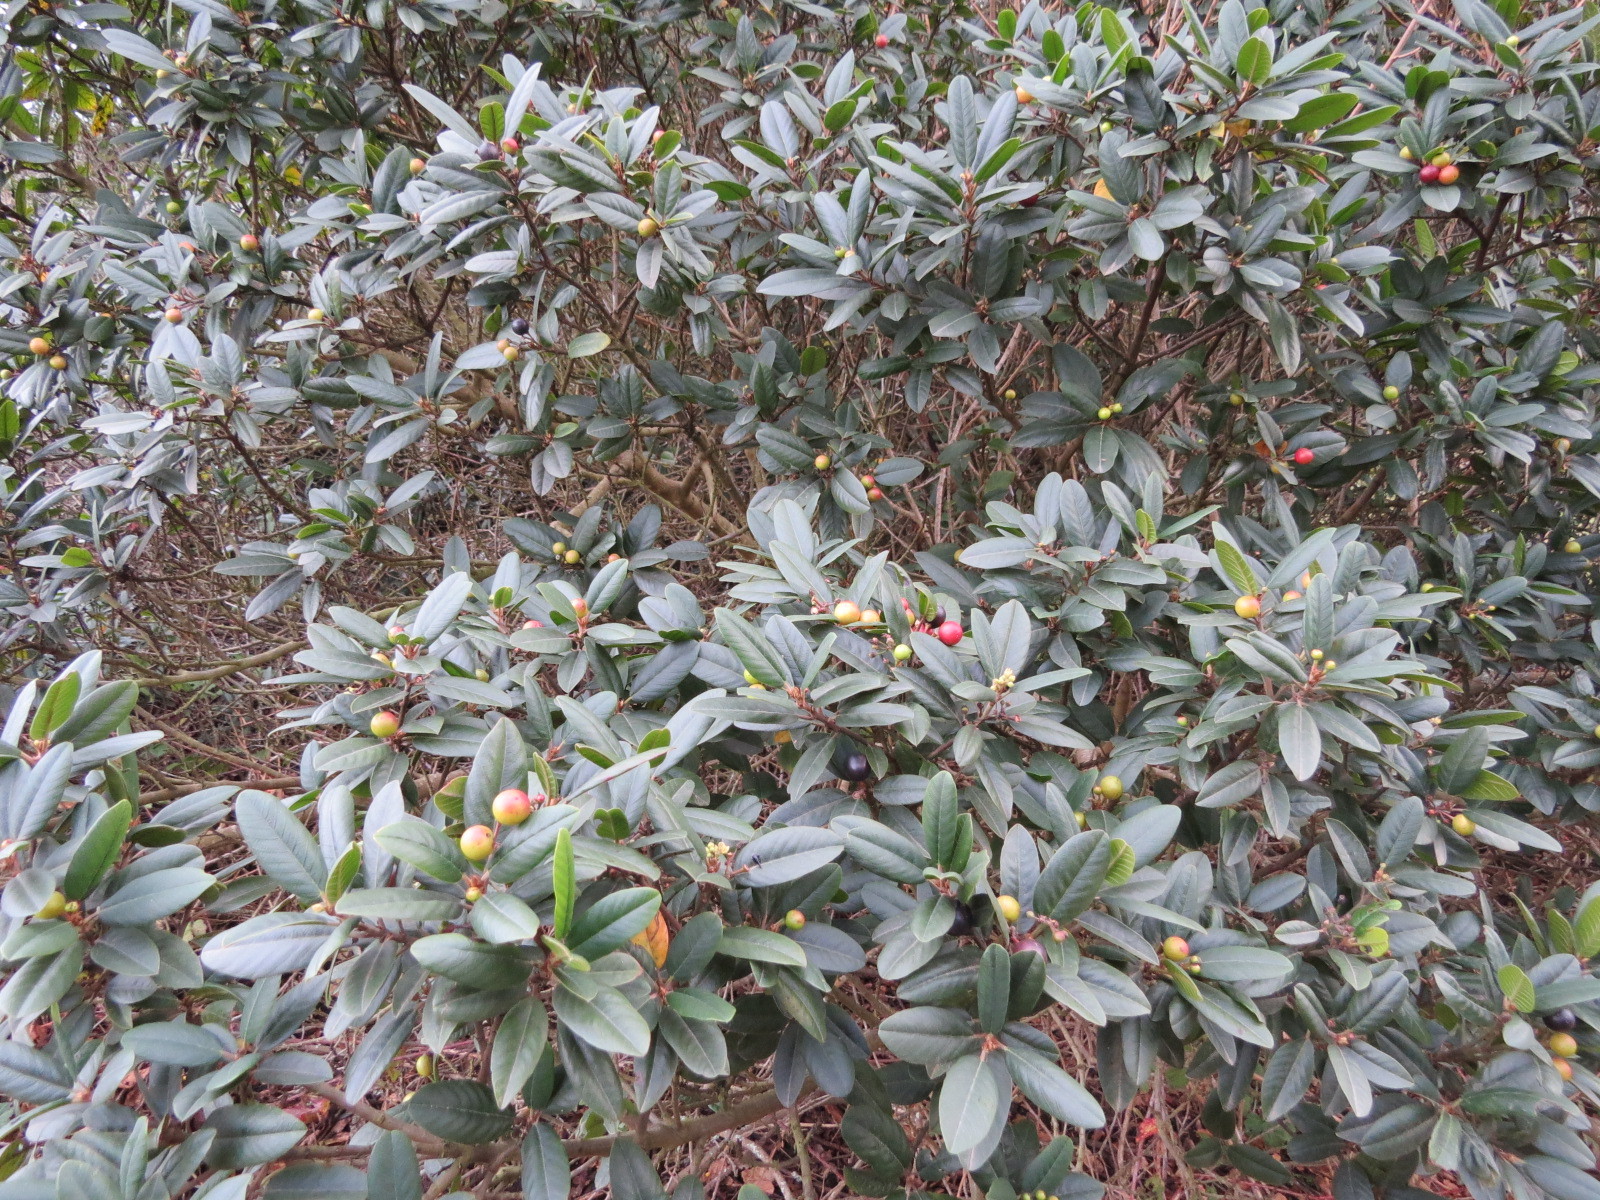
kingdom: Plantae
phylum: Tracheophyta
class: Magnoliopsida
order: Rosales
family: Rhamnaceae
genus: Frangula
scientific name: Frangula californica
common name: California buckthorn
